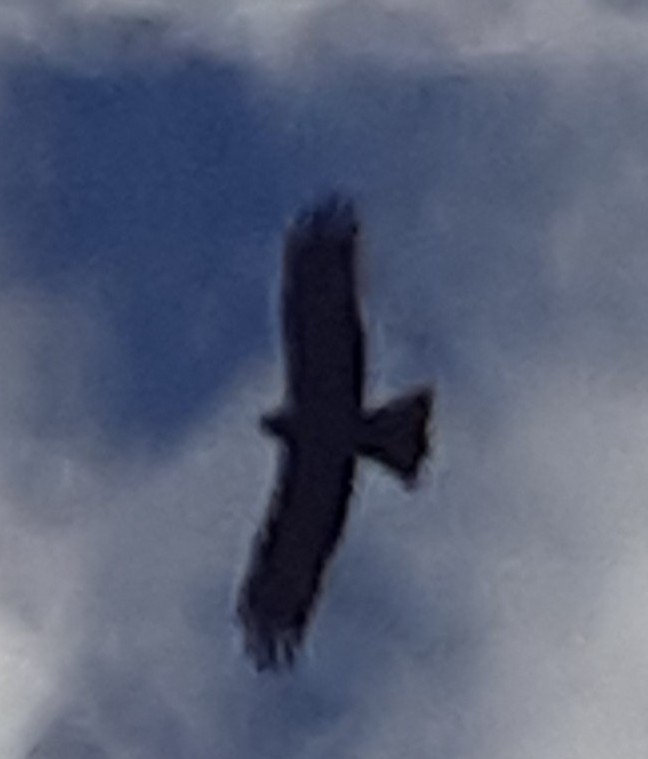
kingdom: Animalia
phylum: Chordata
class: Aves
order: Accipitriformes
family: Accipitridae
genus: Milvus
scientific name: Milvus migrans
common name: Black kite
